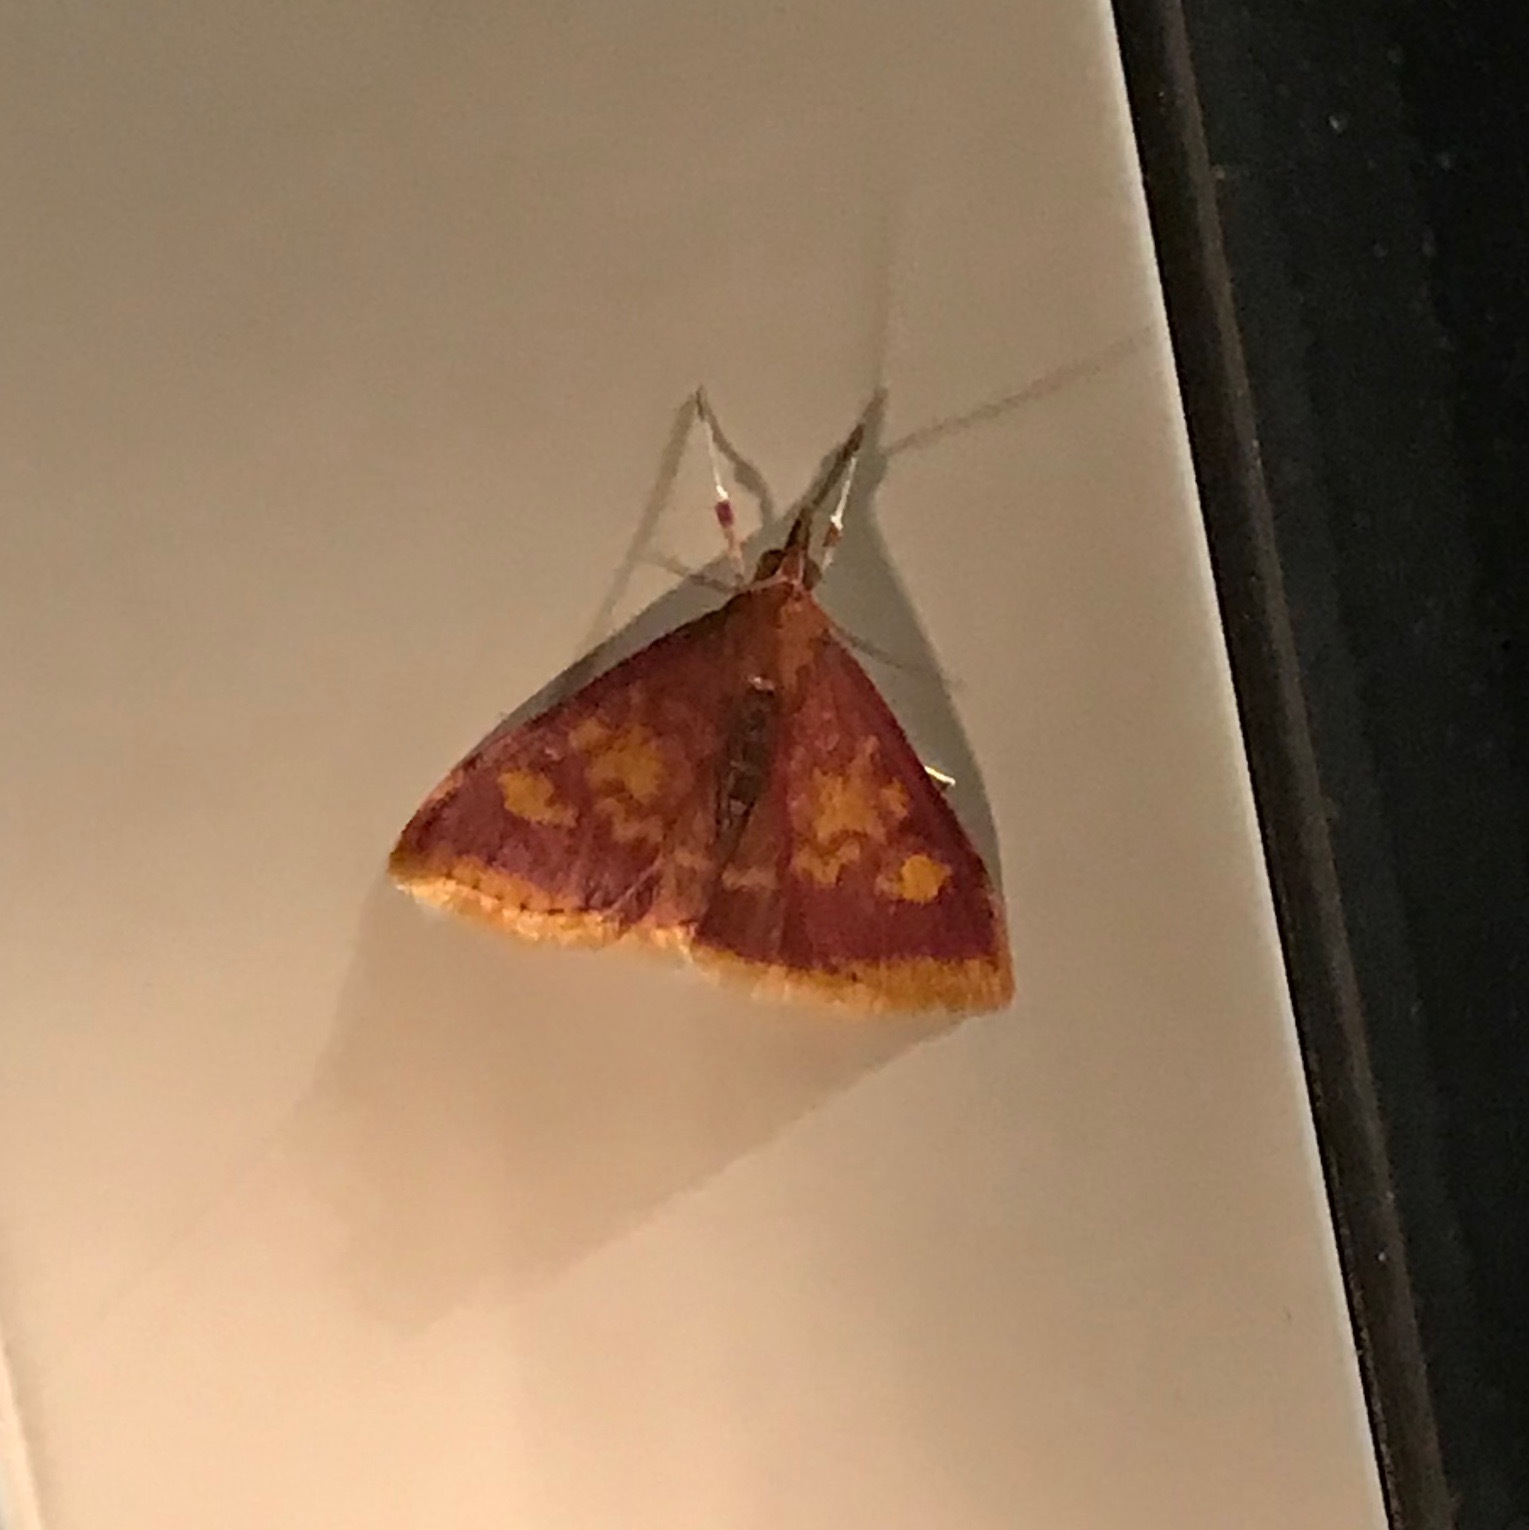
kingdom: Animalia
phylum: Arthropoda
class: Insecta
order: Lepidoptera
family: Crambidae
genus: Pyrausta
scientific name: Pyrausta acrionalis
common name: Mint-loving pyrausta moth
